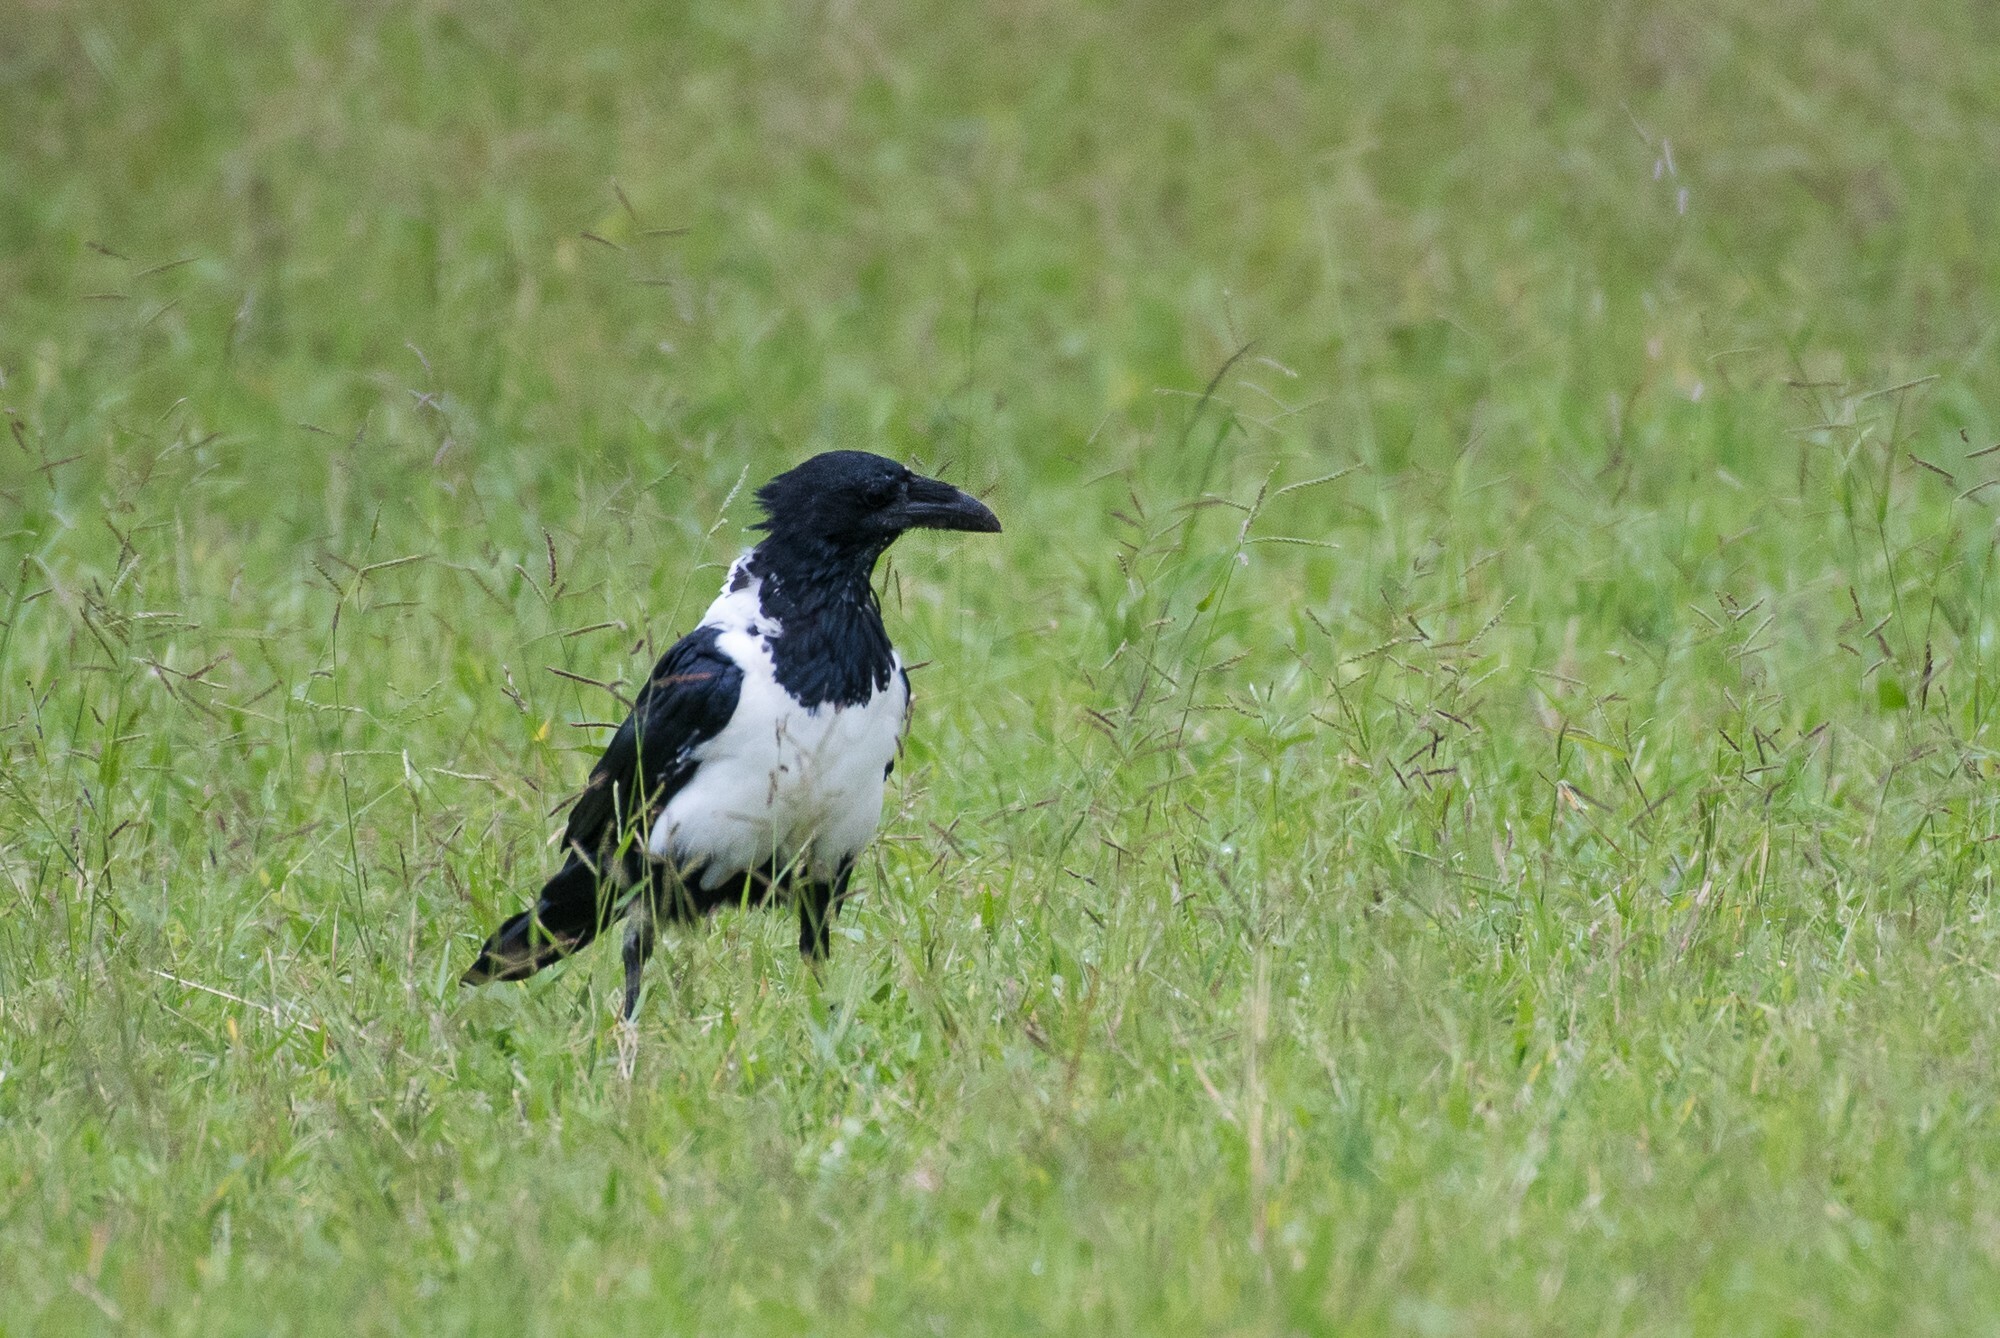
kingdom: Animalia
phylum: Chordata
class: Aves
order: Passeriformes
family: Corvidae
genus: Corvus
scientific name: Corvus albus
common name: Pied crow
